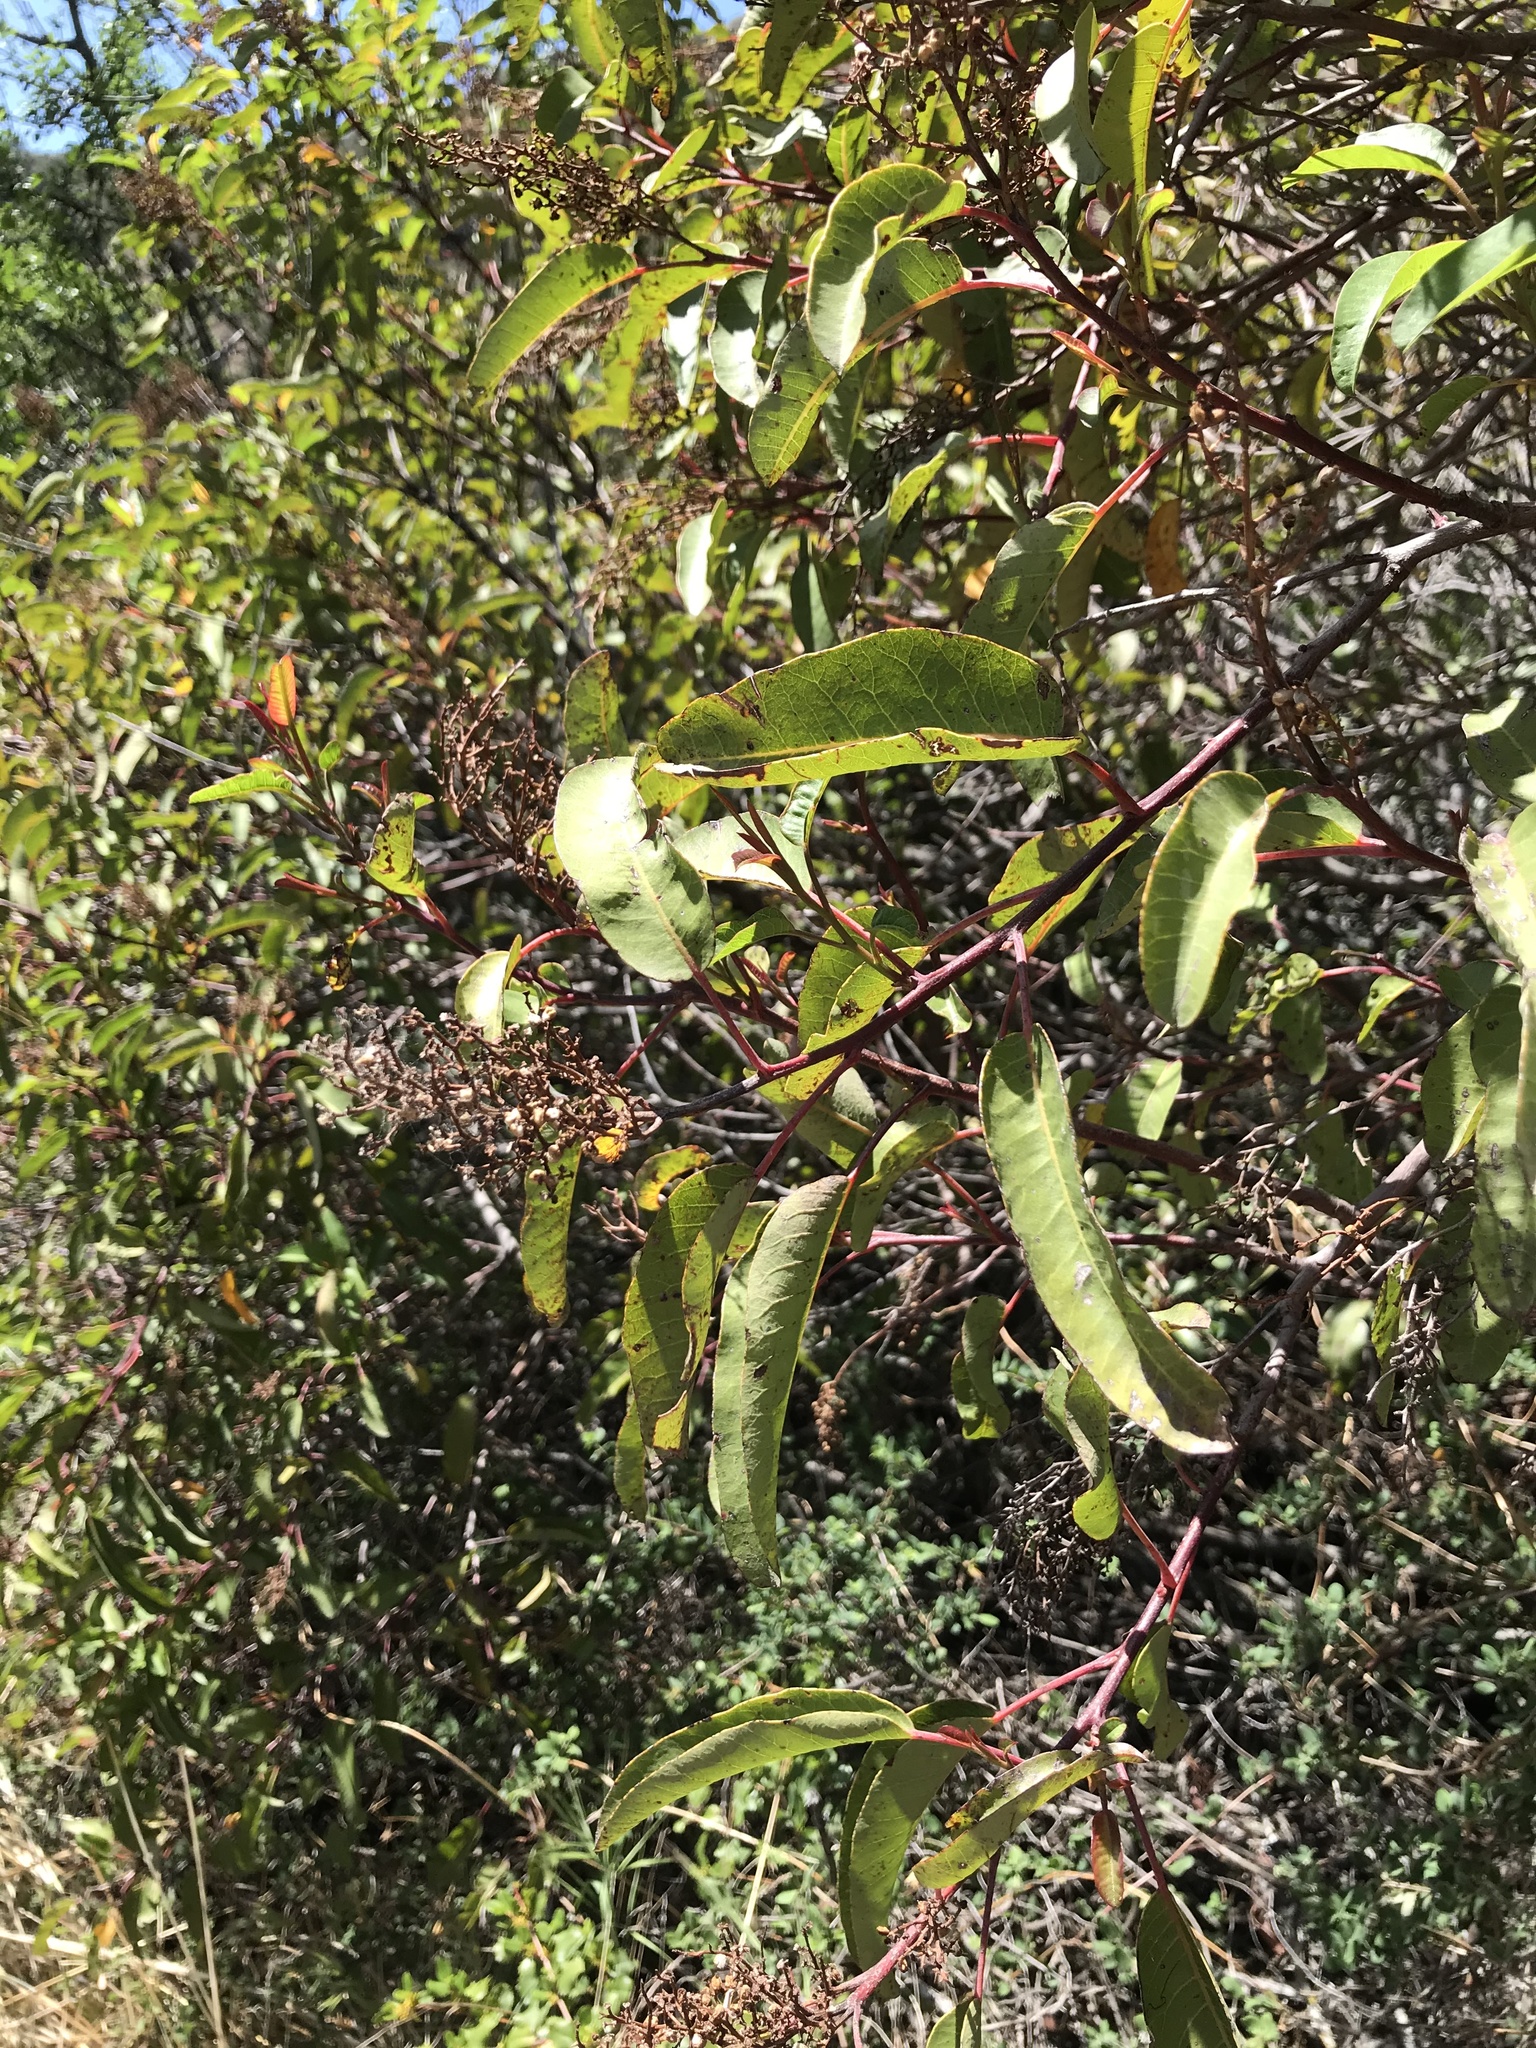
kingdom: Plantae
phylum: Tracheophyta
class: Magnoliopsida
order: Sapindales
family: Anacardiaceae
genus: Malosma
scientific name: Malosma laurina
